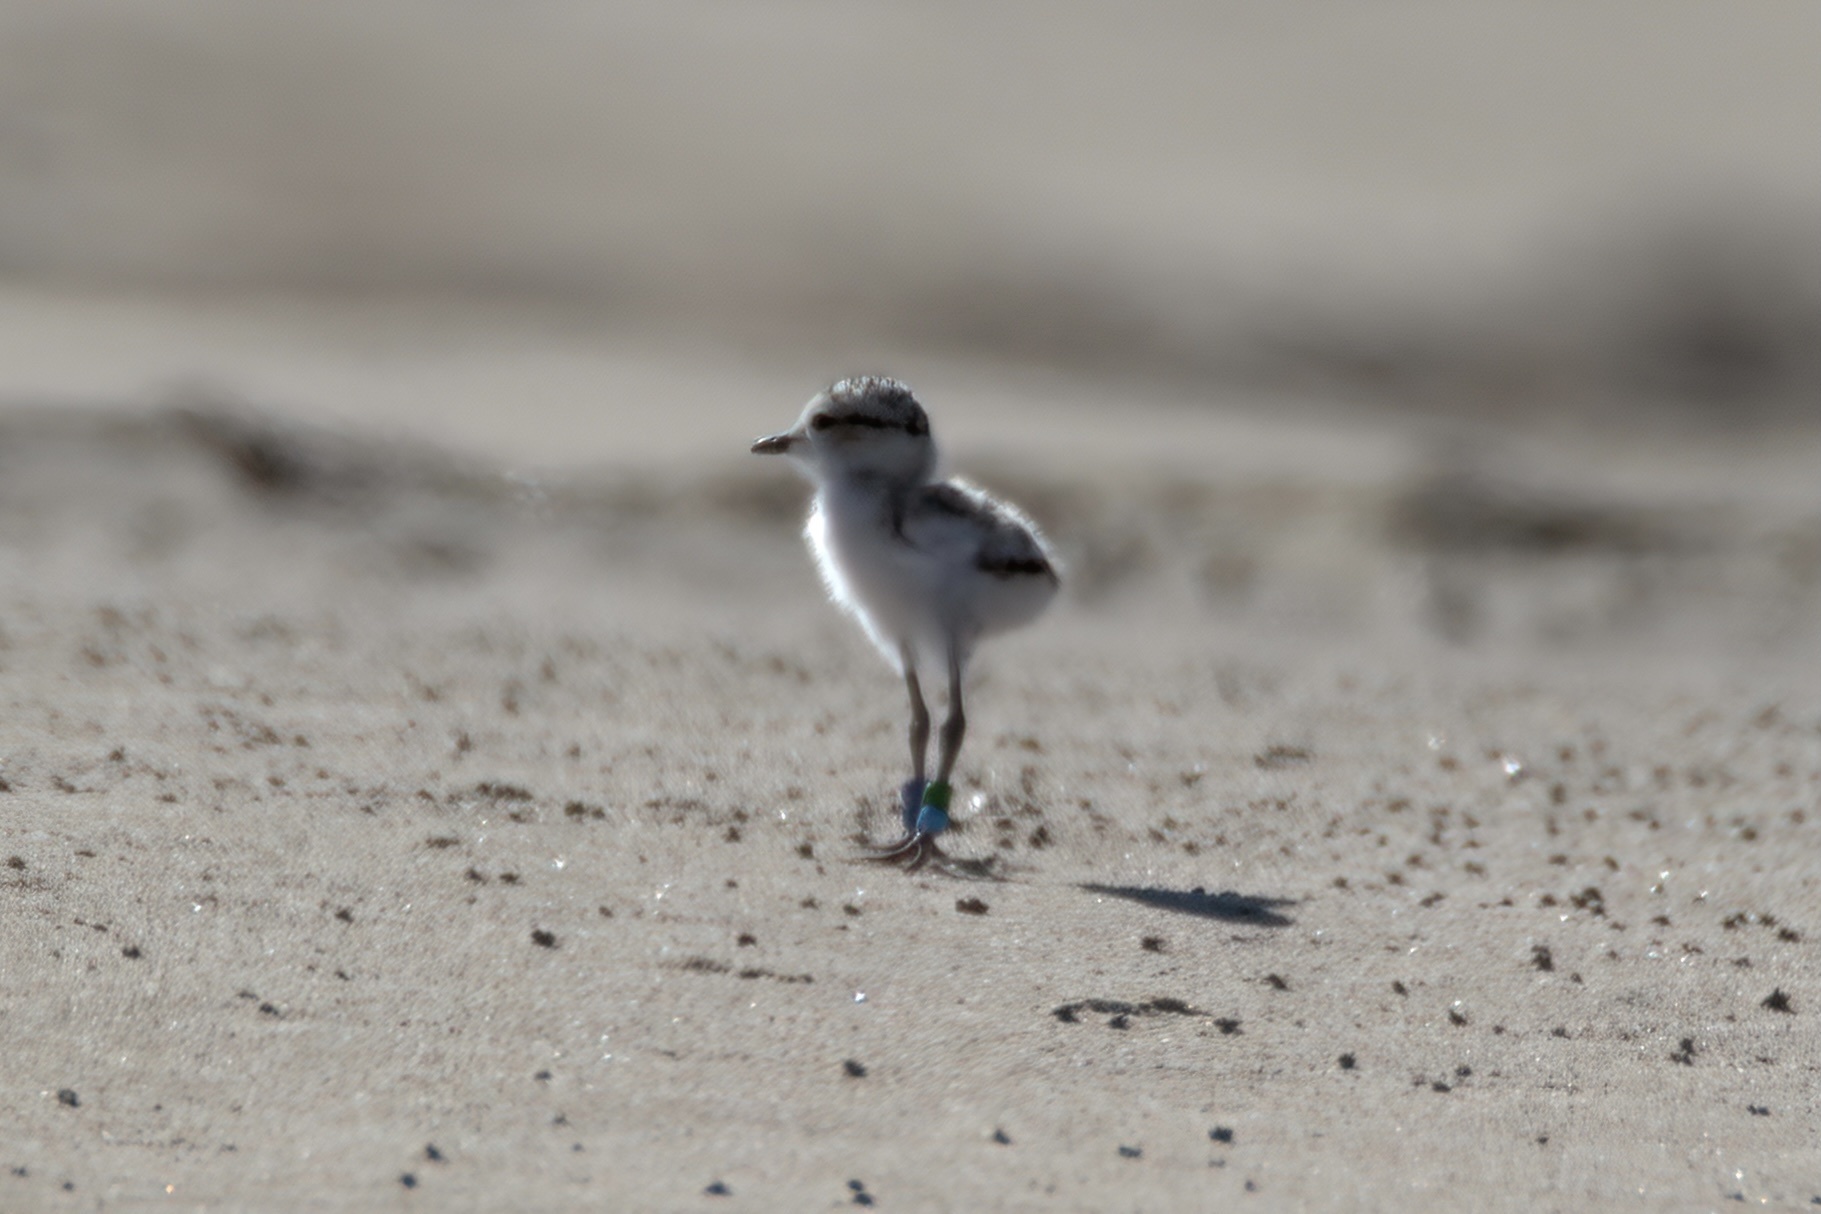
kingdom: Animalia
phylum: Chordata
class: Aves
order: Charadriiformes
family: Charadriidae
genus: Anarhynchus
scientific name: Anarhynchus
